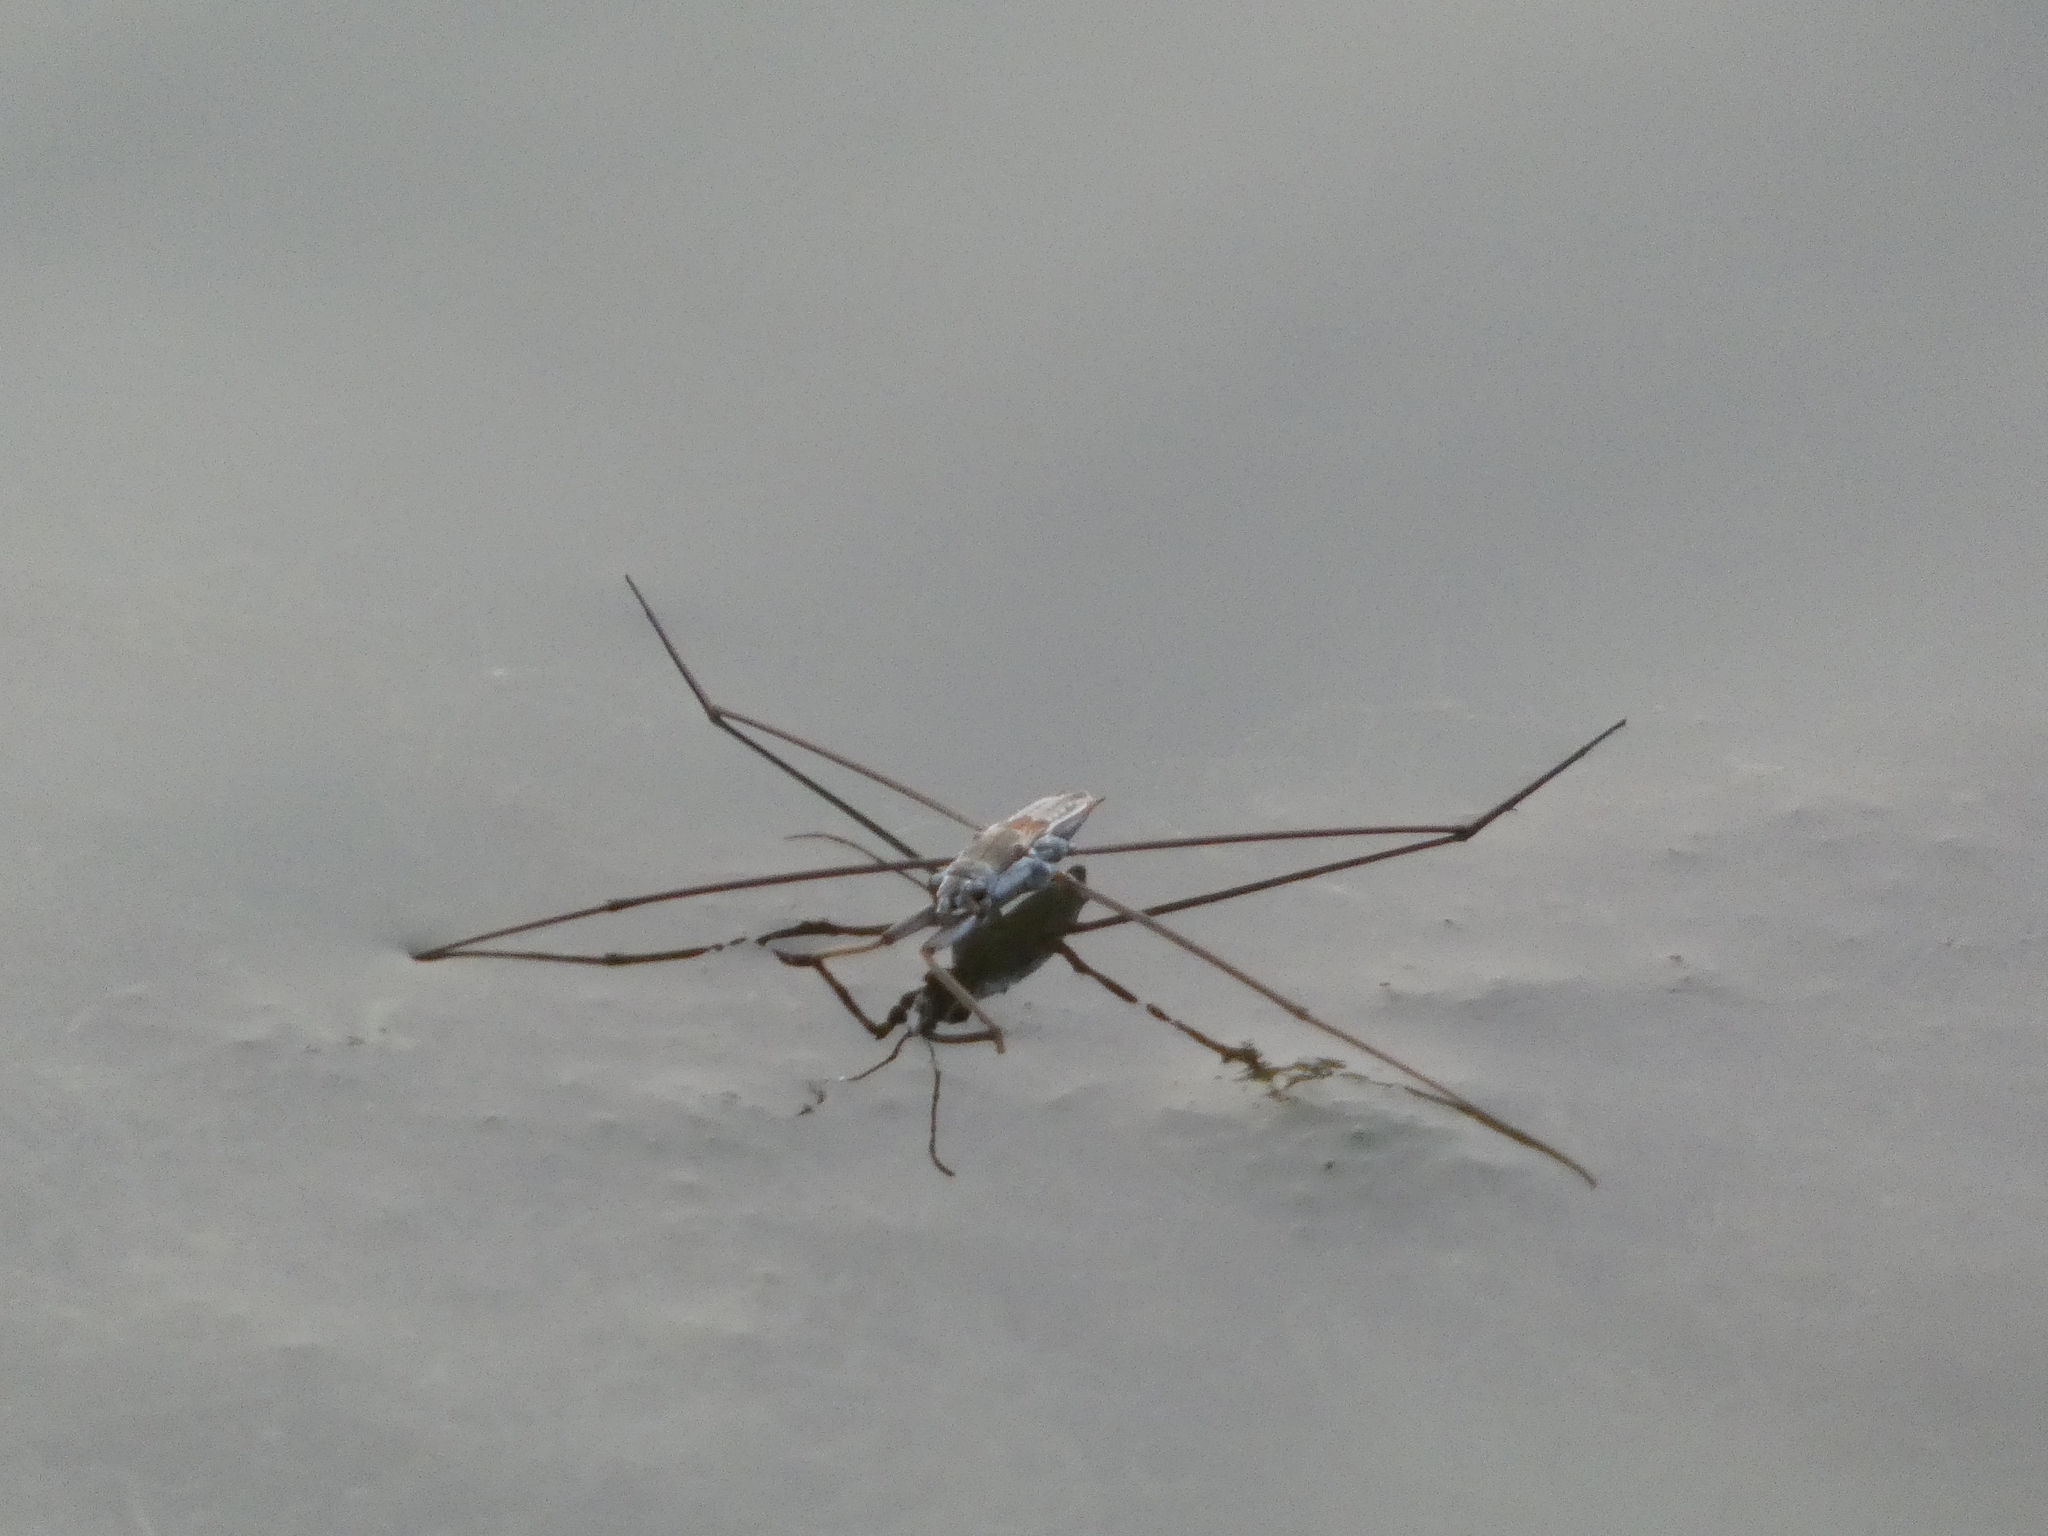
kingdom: Animalia
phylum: Arthropoda
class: Insecta
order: Hemiptera
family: Gerridae
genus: Aquarius
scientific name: Aquarius adelaidis
